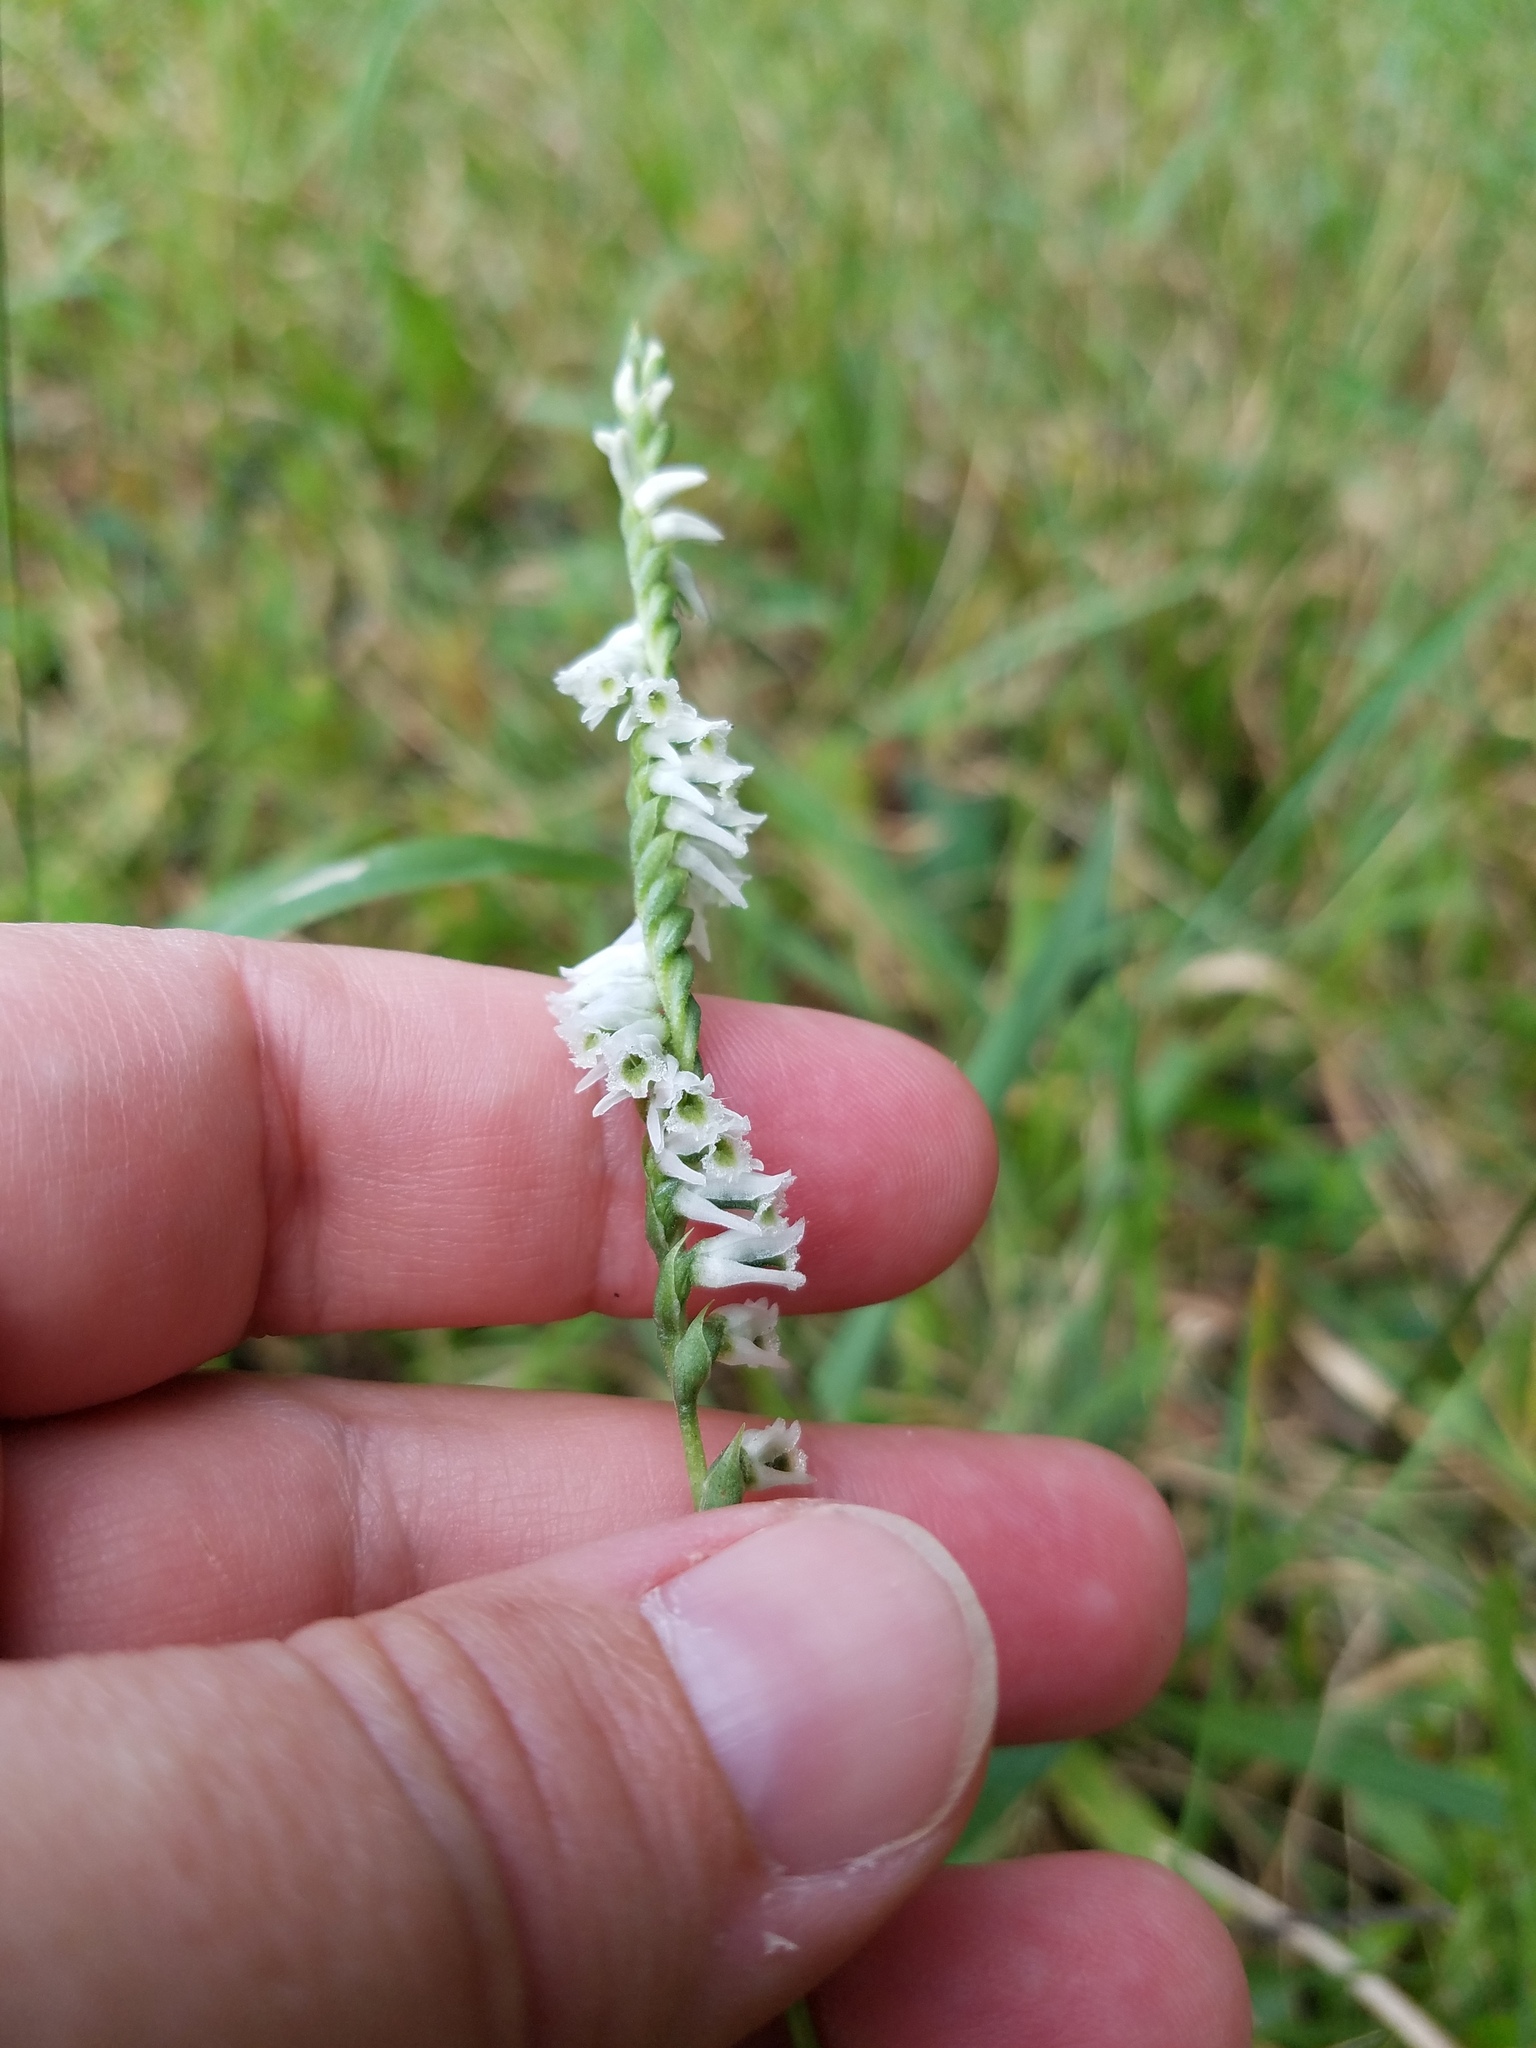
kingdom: Plantae
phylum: Tracheophyta
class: Liliopsida
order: Asparagales
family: Orchidaceae
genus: Spiranthes
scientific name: Spiranthes lacera
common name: Northern slender ladies'-tresses
